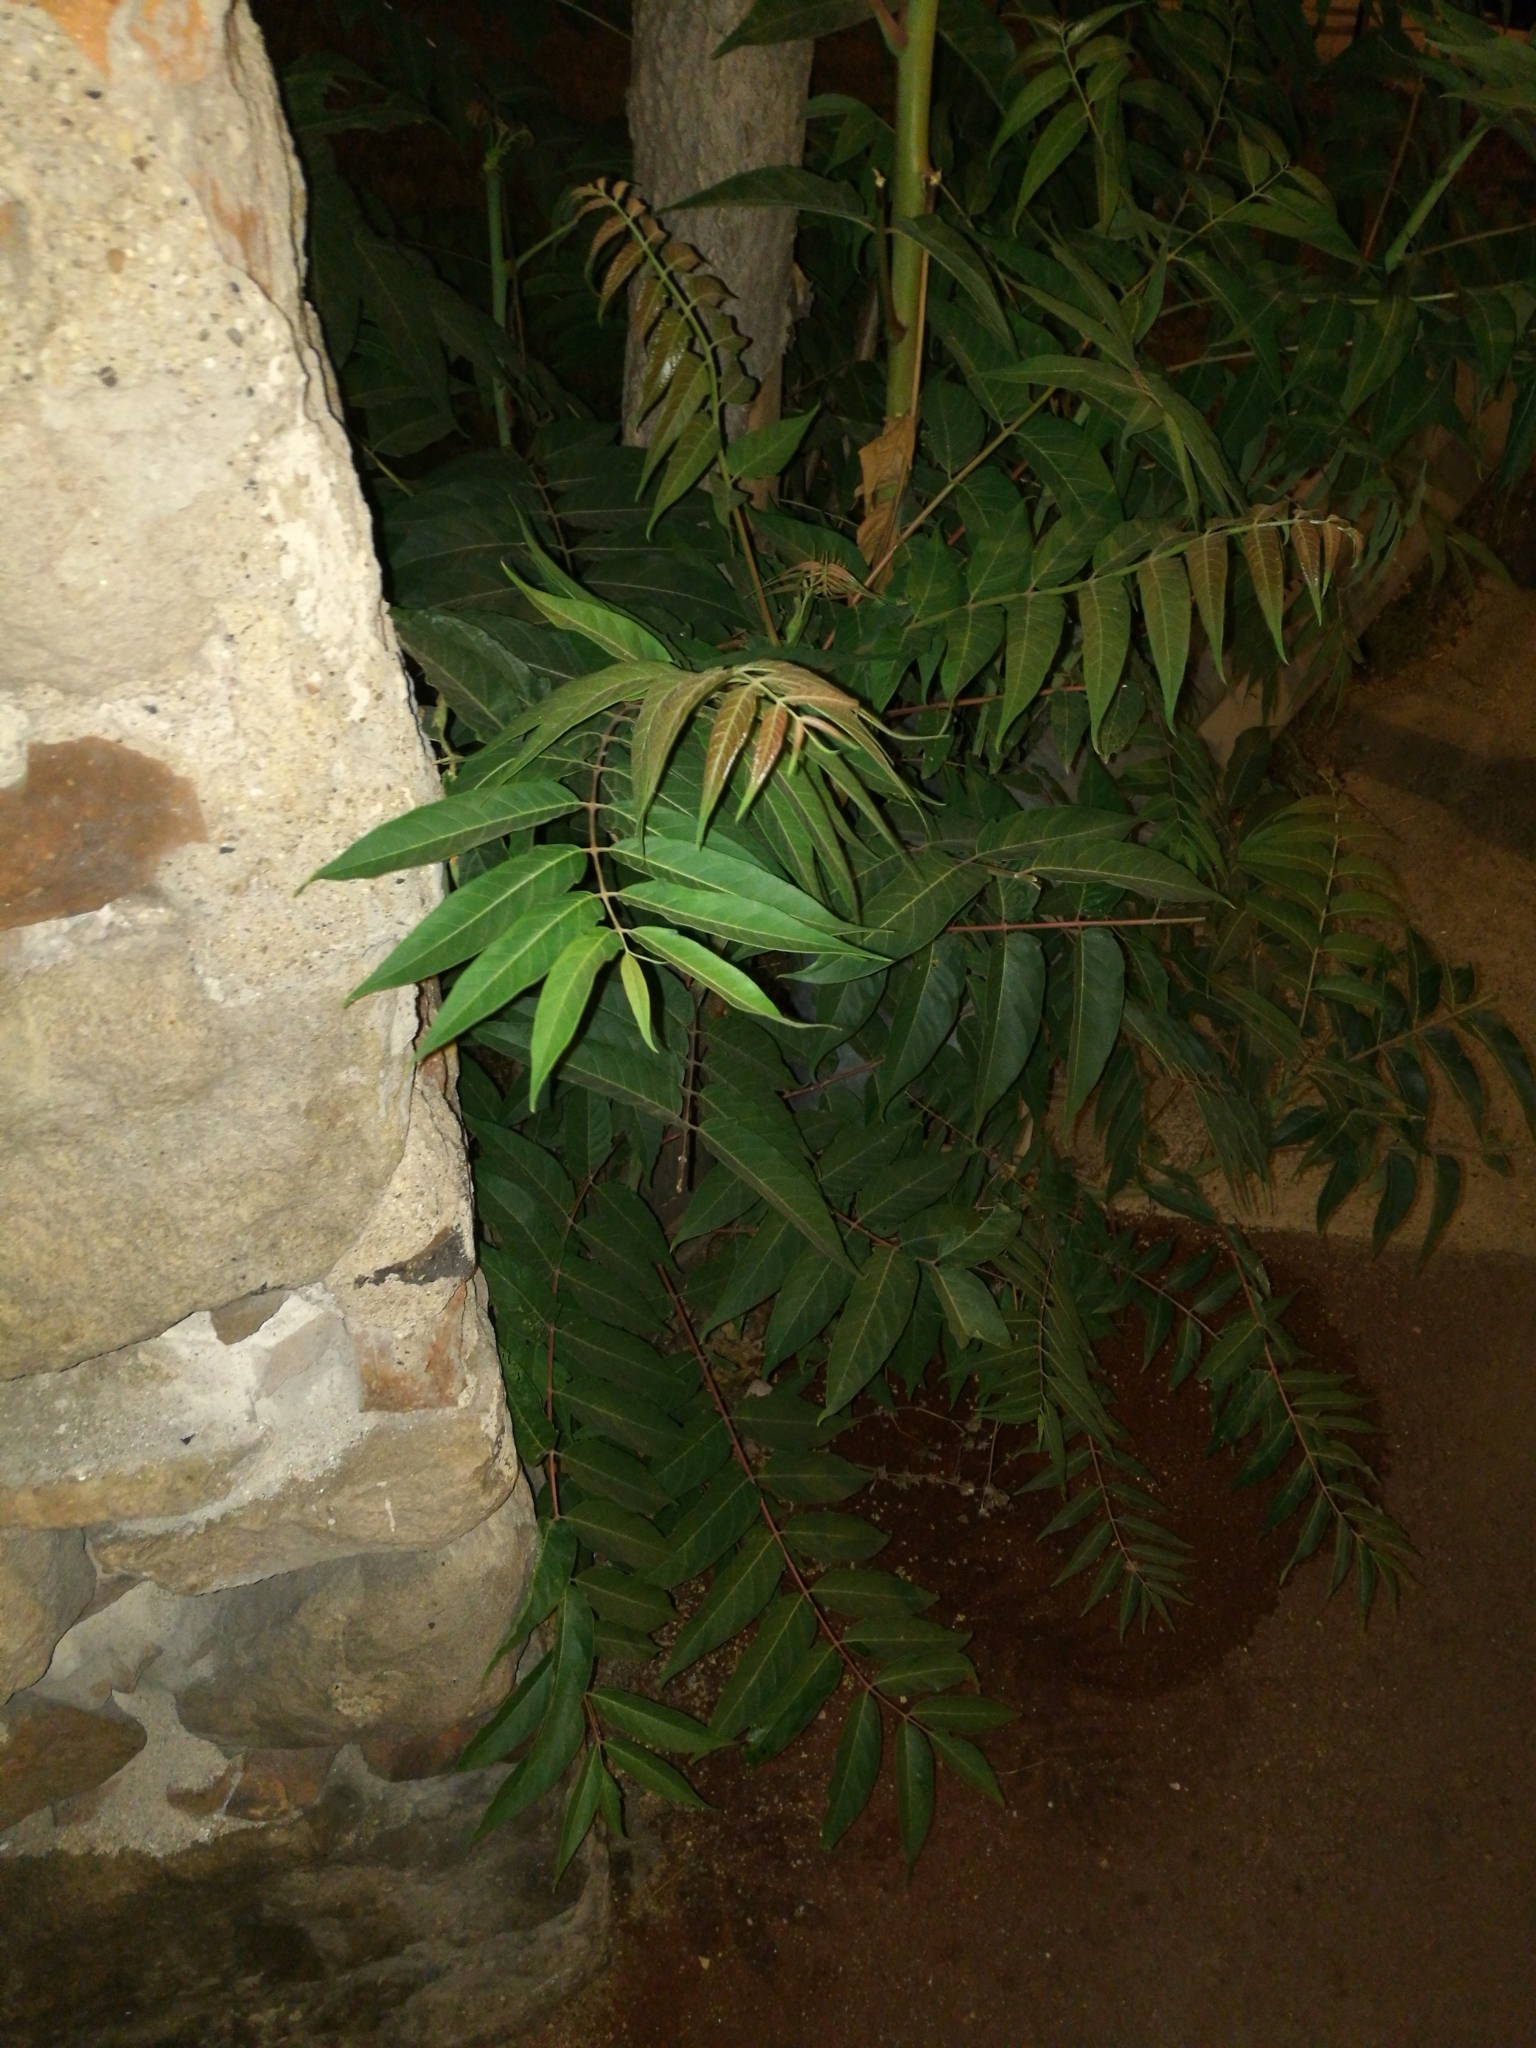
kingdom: Plantae
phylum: Tracheophyta
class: Magnoliopsida
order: Sapindales
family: Simaroubaceae
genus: Ailanthus
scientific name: Ailanthus altissima
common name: Tree-of-heaven
